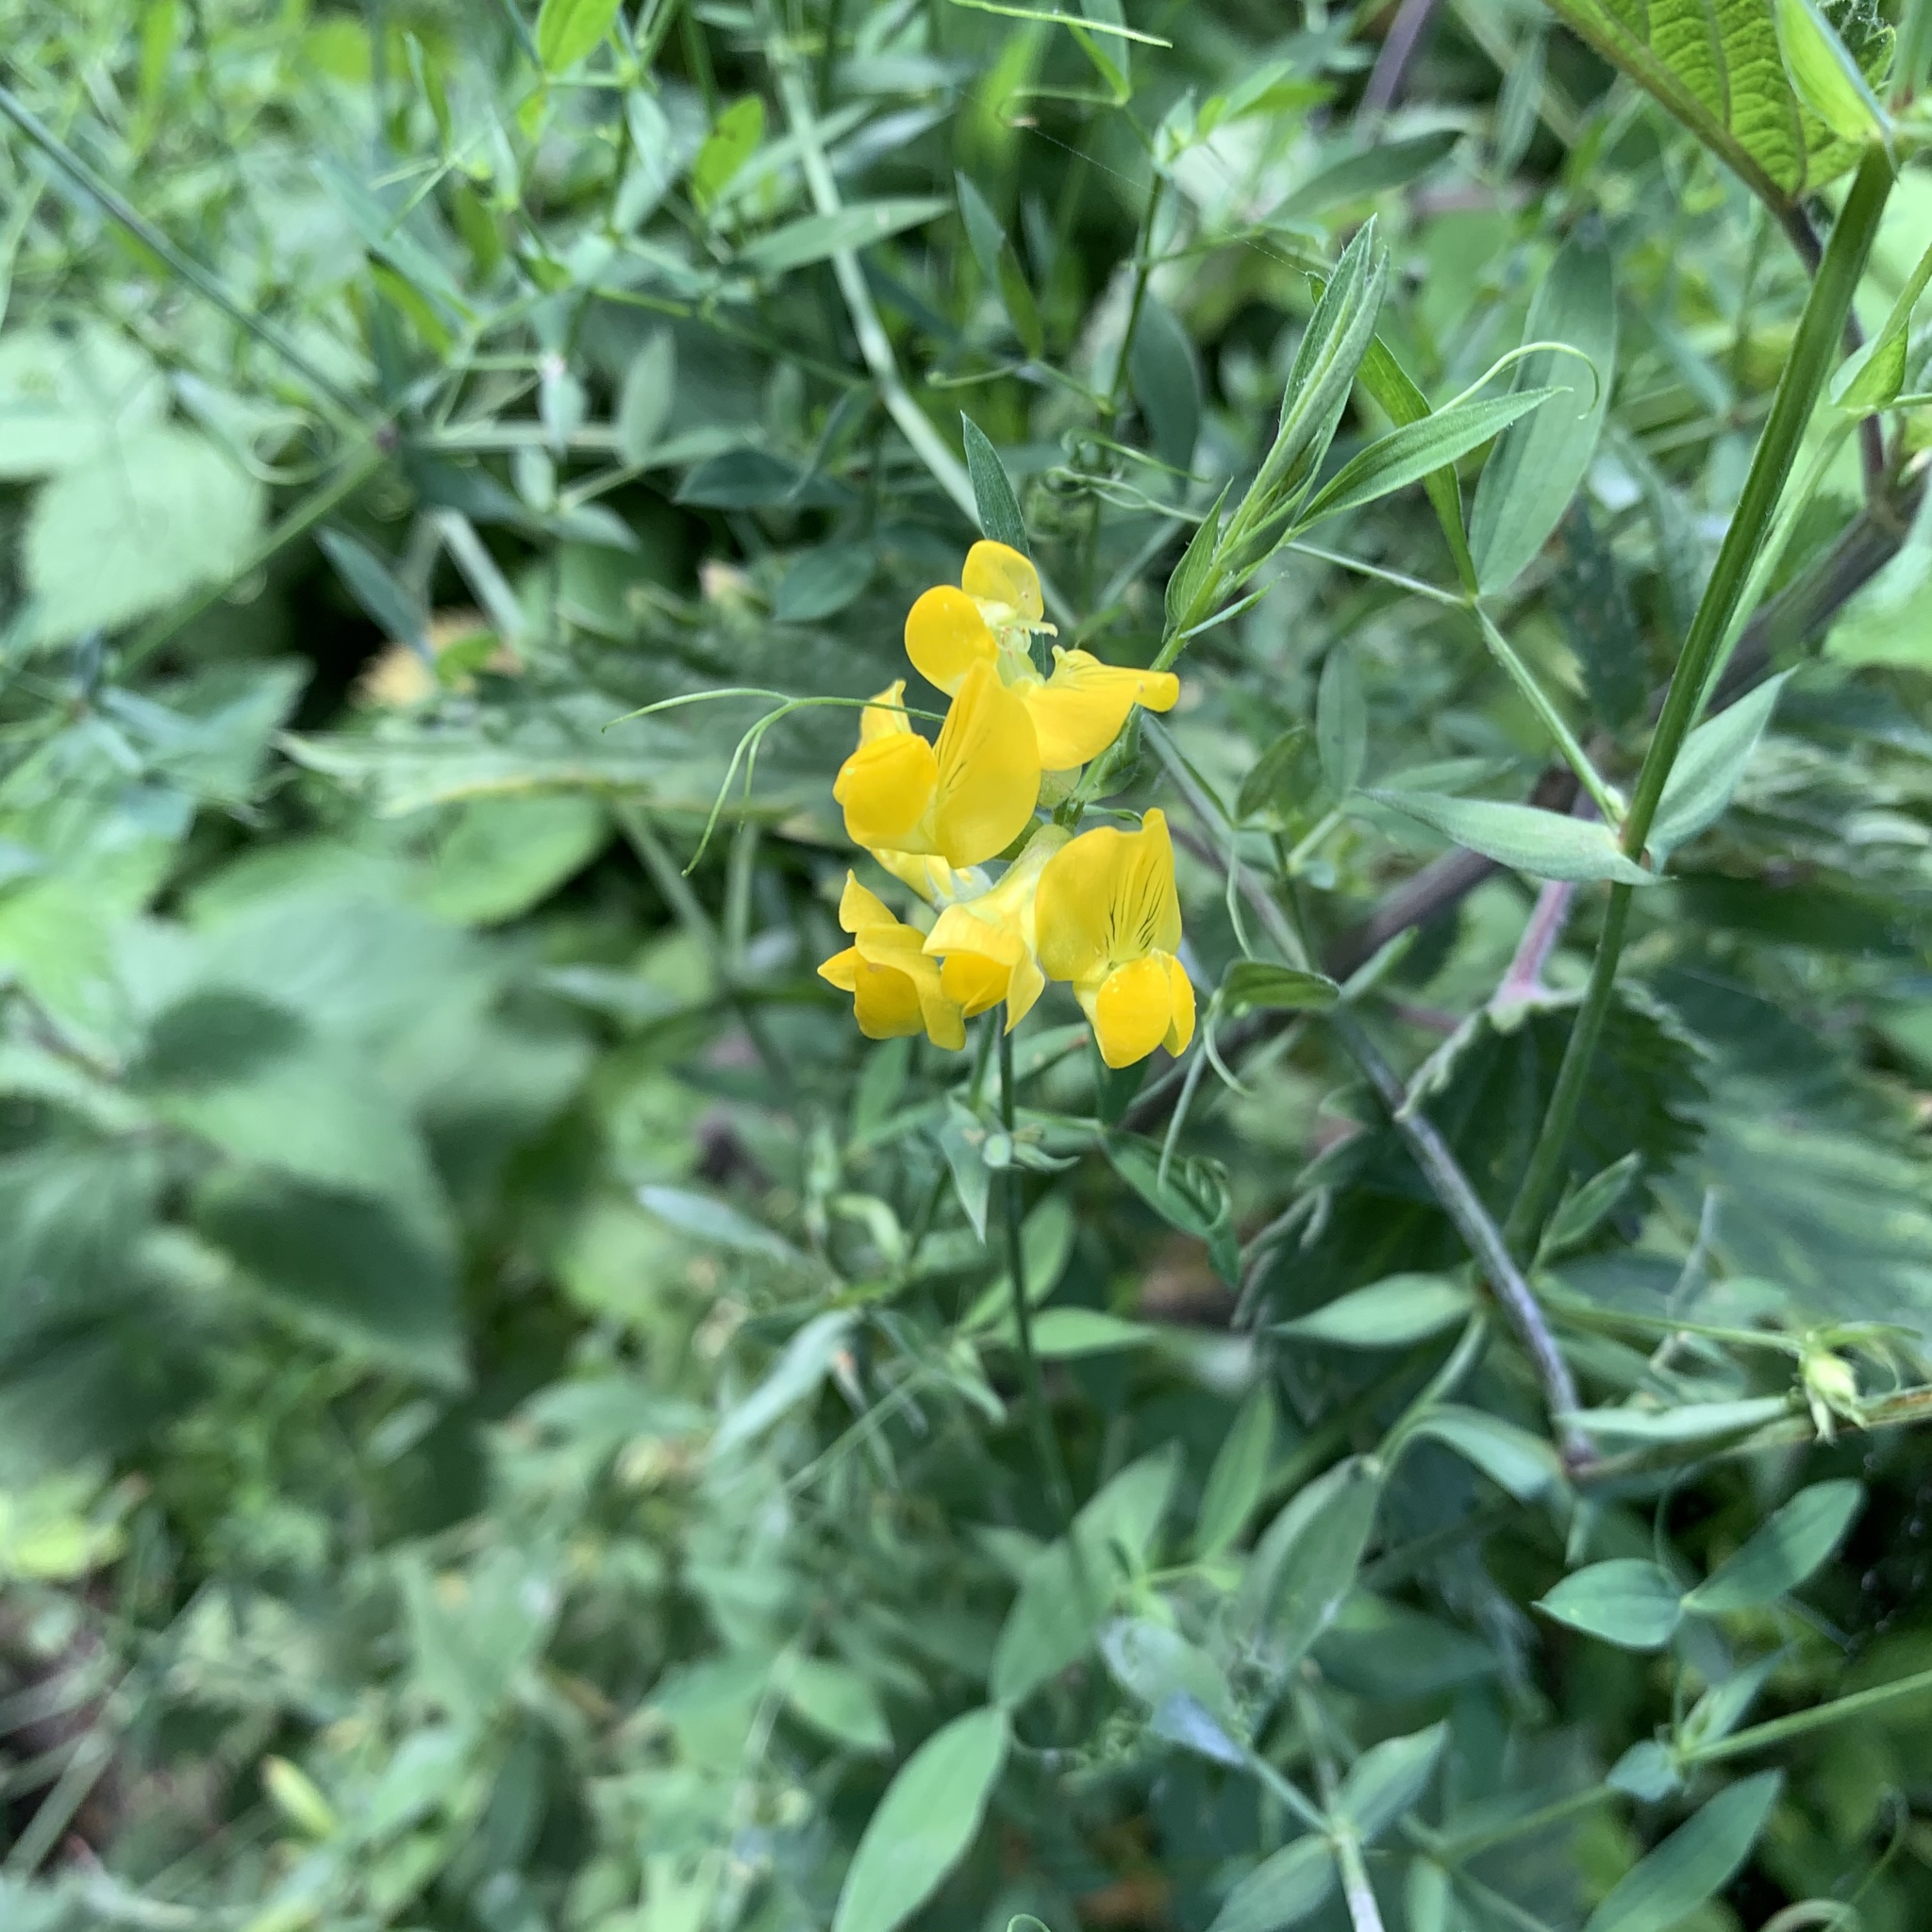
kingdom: Plantae
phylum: Tracheophyta
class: Magnoliopsida
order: Fabales
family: Fabaceae
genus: Lathyrus
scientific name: Lathyrus pratensis
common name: Meadow vetchling
